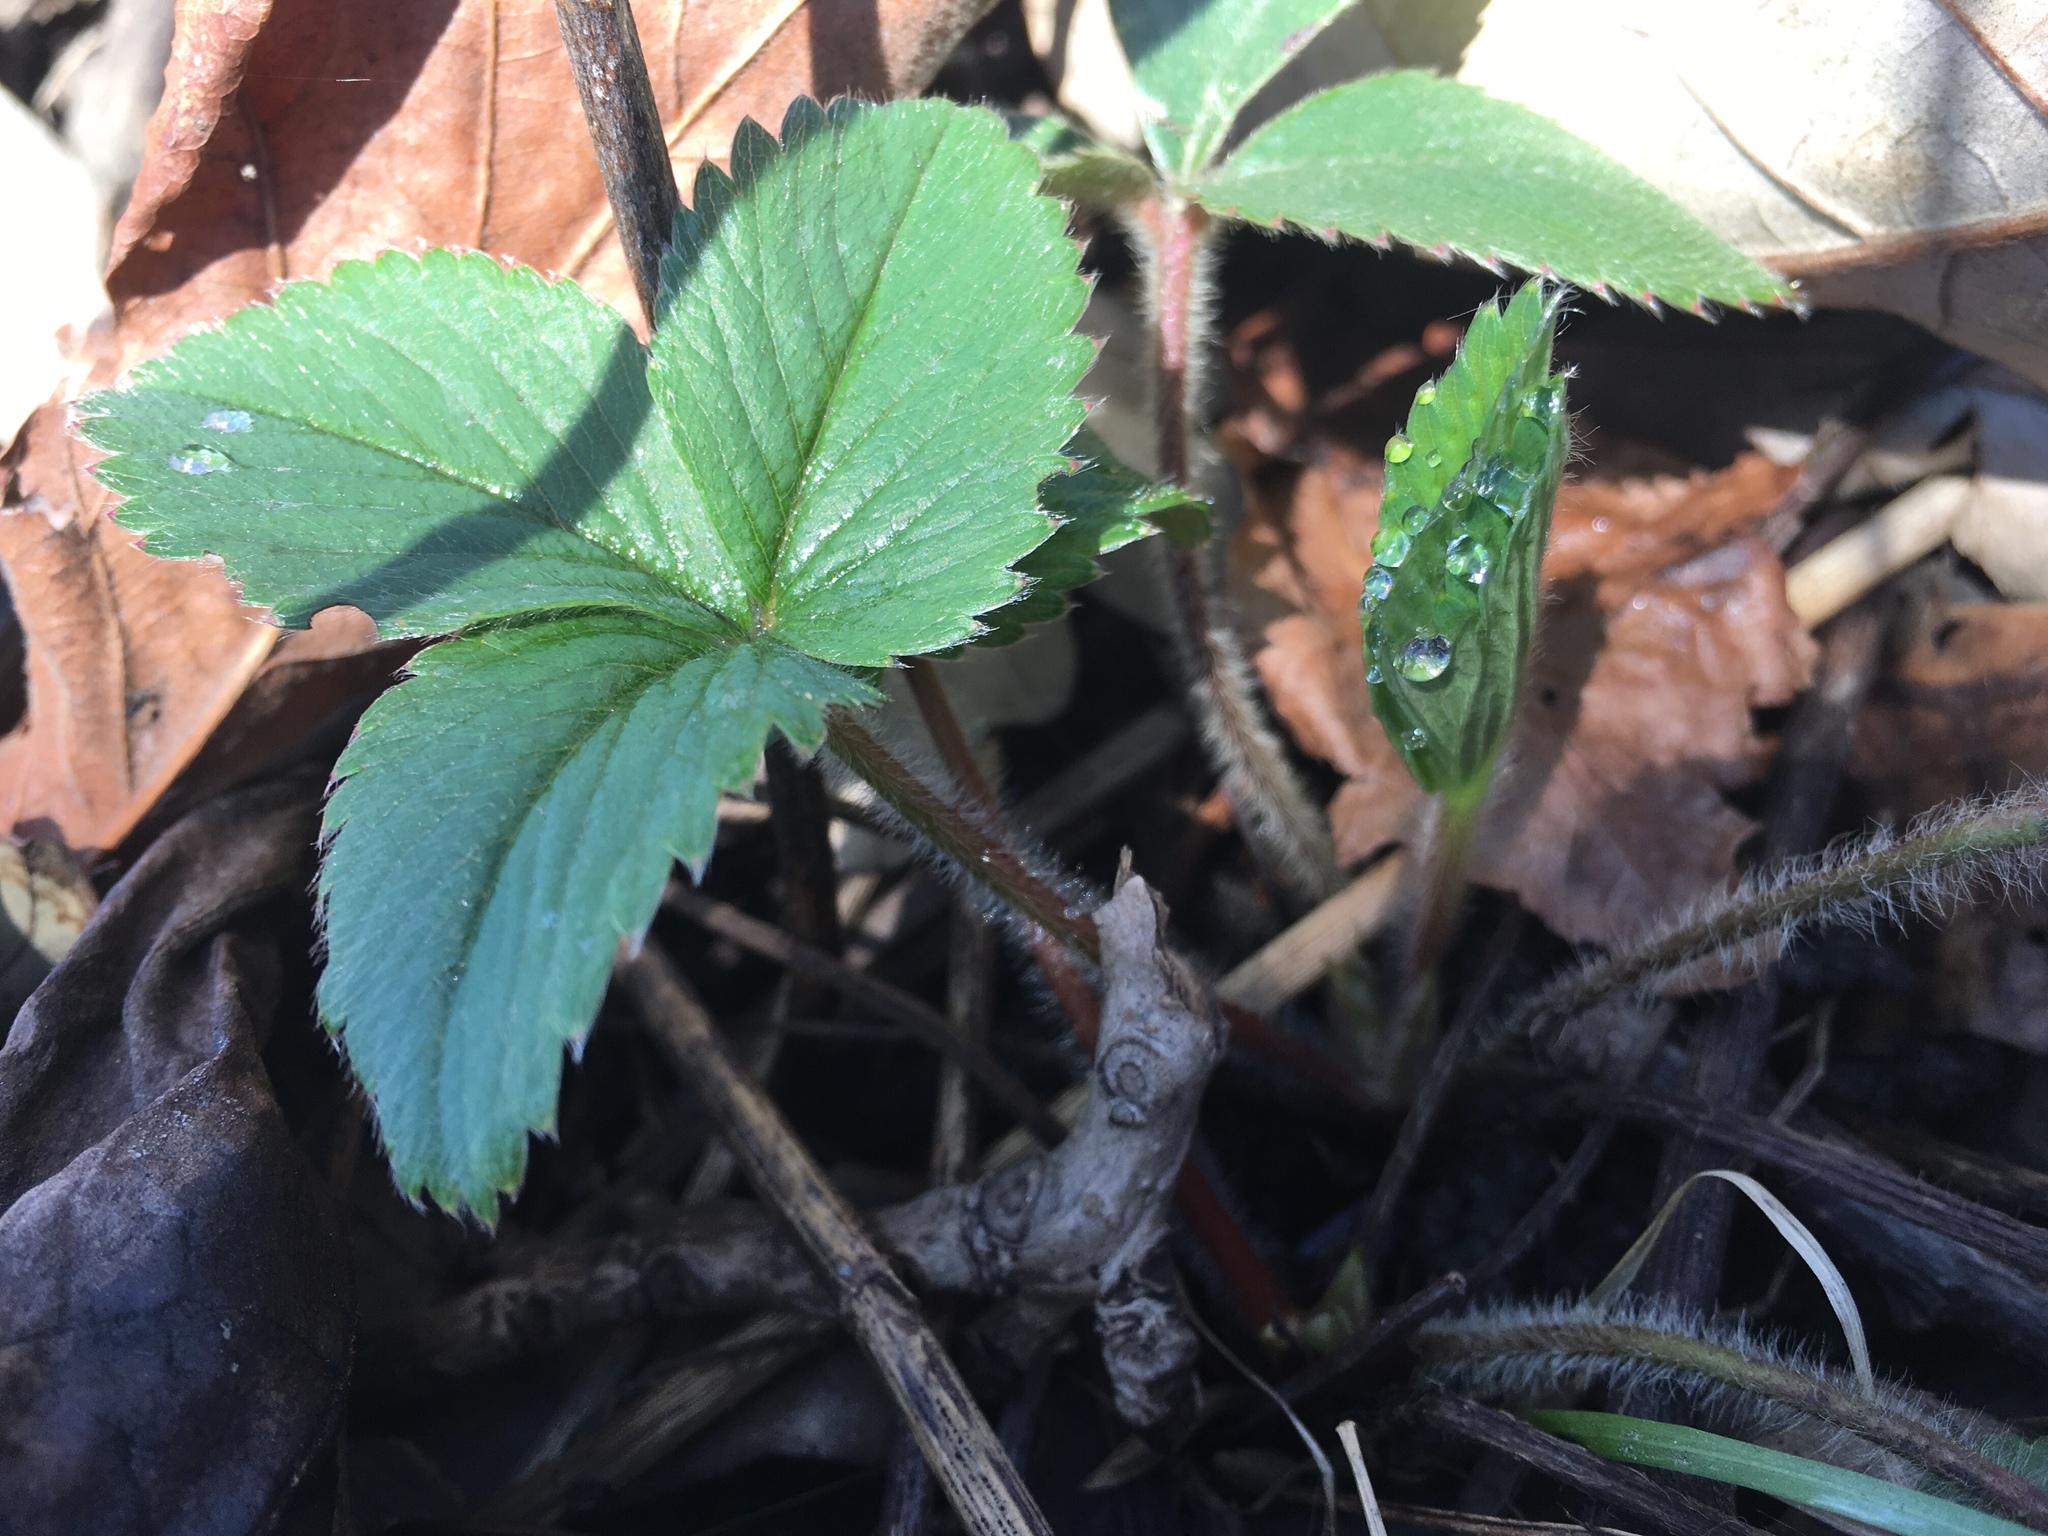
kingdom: Plantae
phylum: Tracheophyta
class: Magnoliopsida
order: Rosales
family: Rosaceae
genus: Fragaria
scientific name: Fragaria virginiana
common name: Thickleaved wild strawberry
